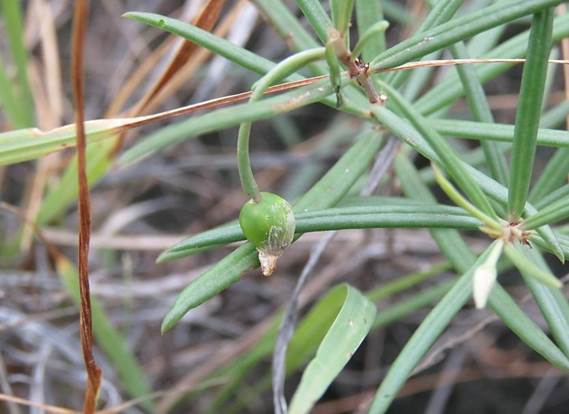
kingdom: Plantae
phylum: Tracheophyta
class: Magnoliopsida
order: Caryophyllales
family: Talinaceae
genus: Talinum
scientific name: Talinum lineare
